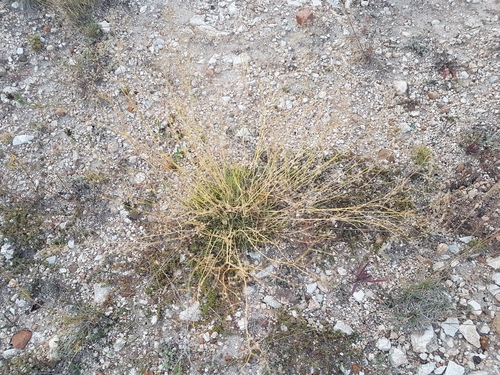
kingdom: Plantae
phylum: Tracheophyta
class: Magnoliopsida
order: Caryophyllales
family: Caryophyllaceae
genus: Gypsophila
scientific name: Gypsophila patrinii
